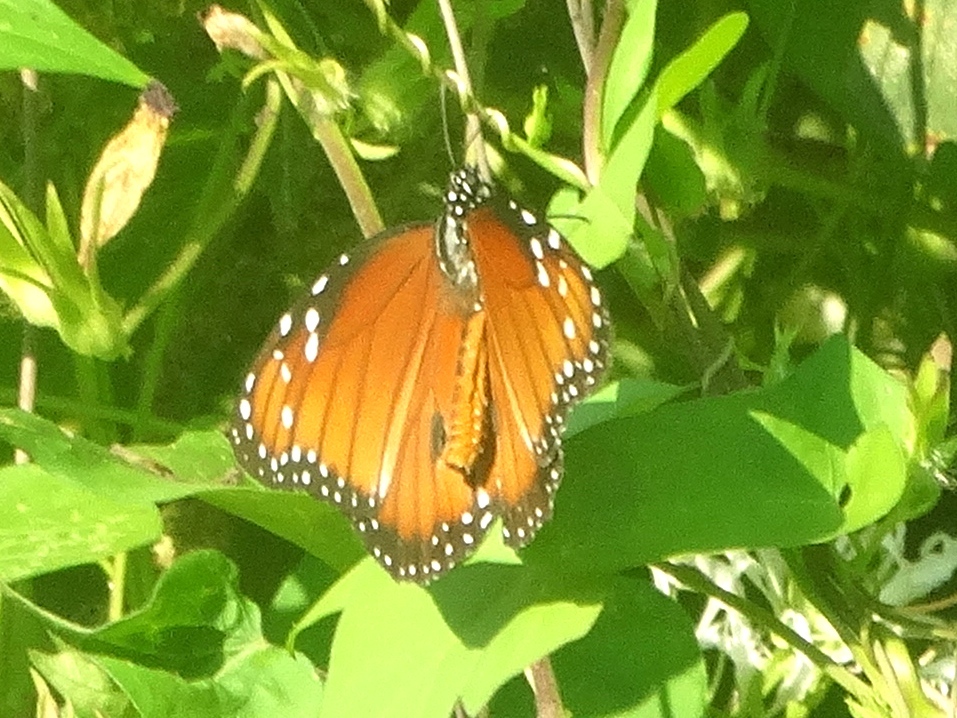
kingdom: Animalia
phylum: Arthropoda
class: Insecta
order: Lepidoptera
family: Nymphalidae
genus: Danaus
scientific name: Danaus eresimus
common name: Soldier
